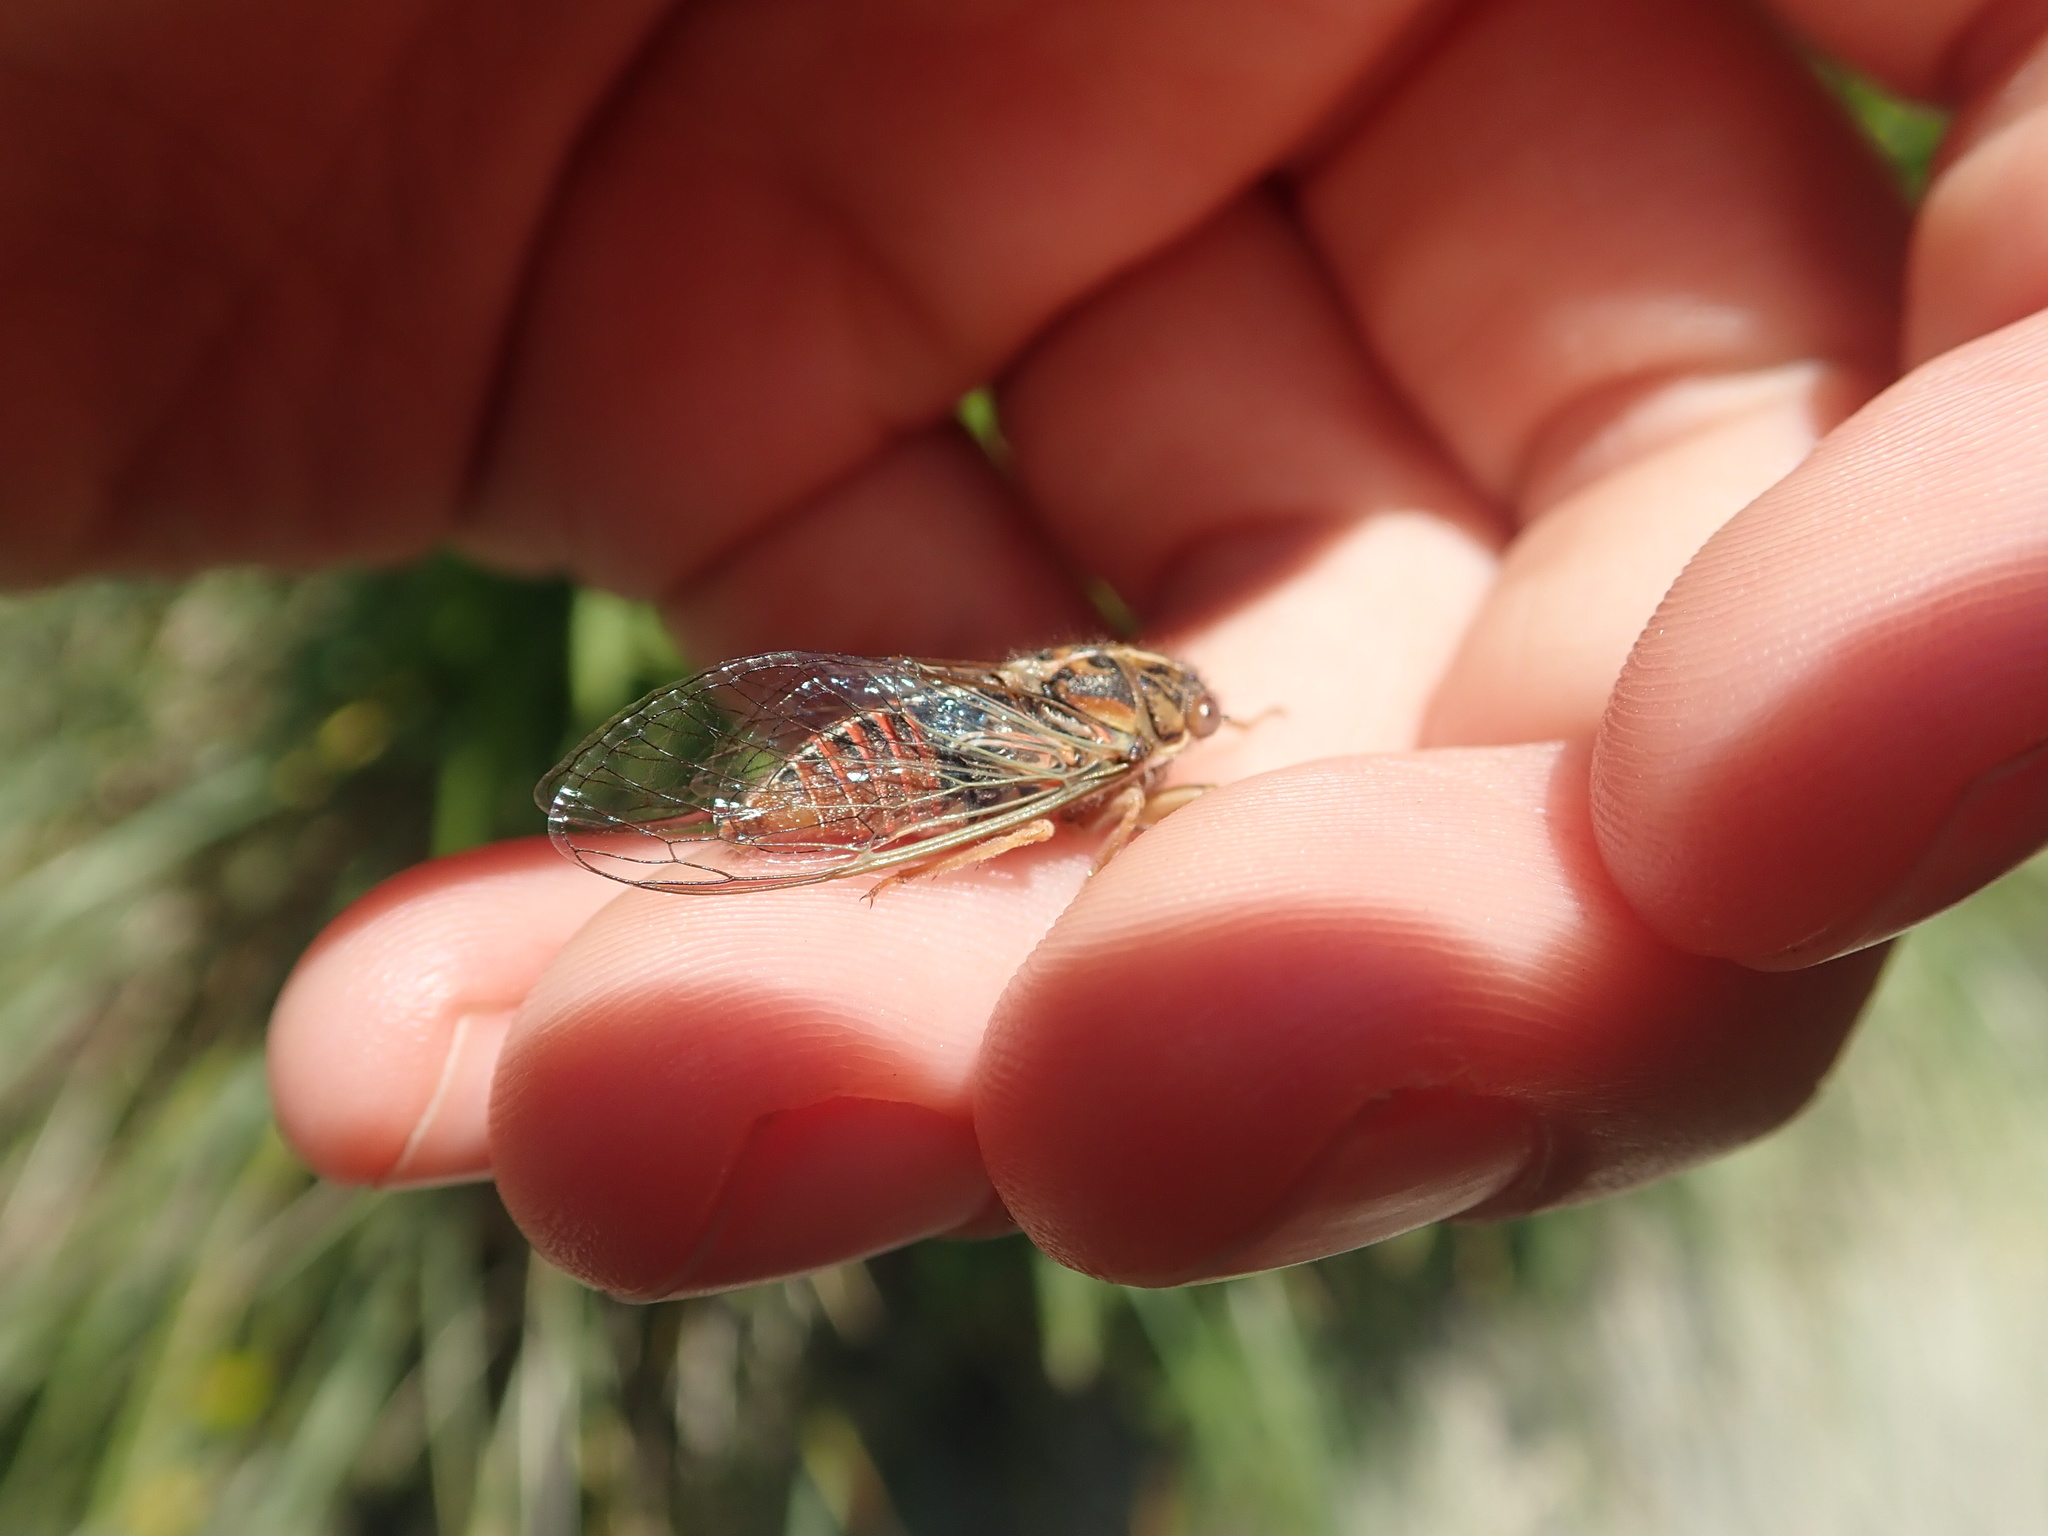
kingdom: Animalia
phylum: Arthropoda
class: Insecta
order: Hemiptera
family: Cicadidae
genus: Rhodopsalta
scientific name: Rhodopsalta cruentata
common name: Blood redtail cicada
